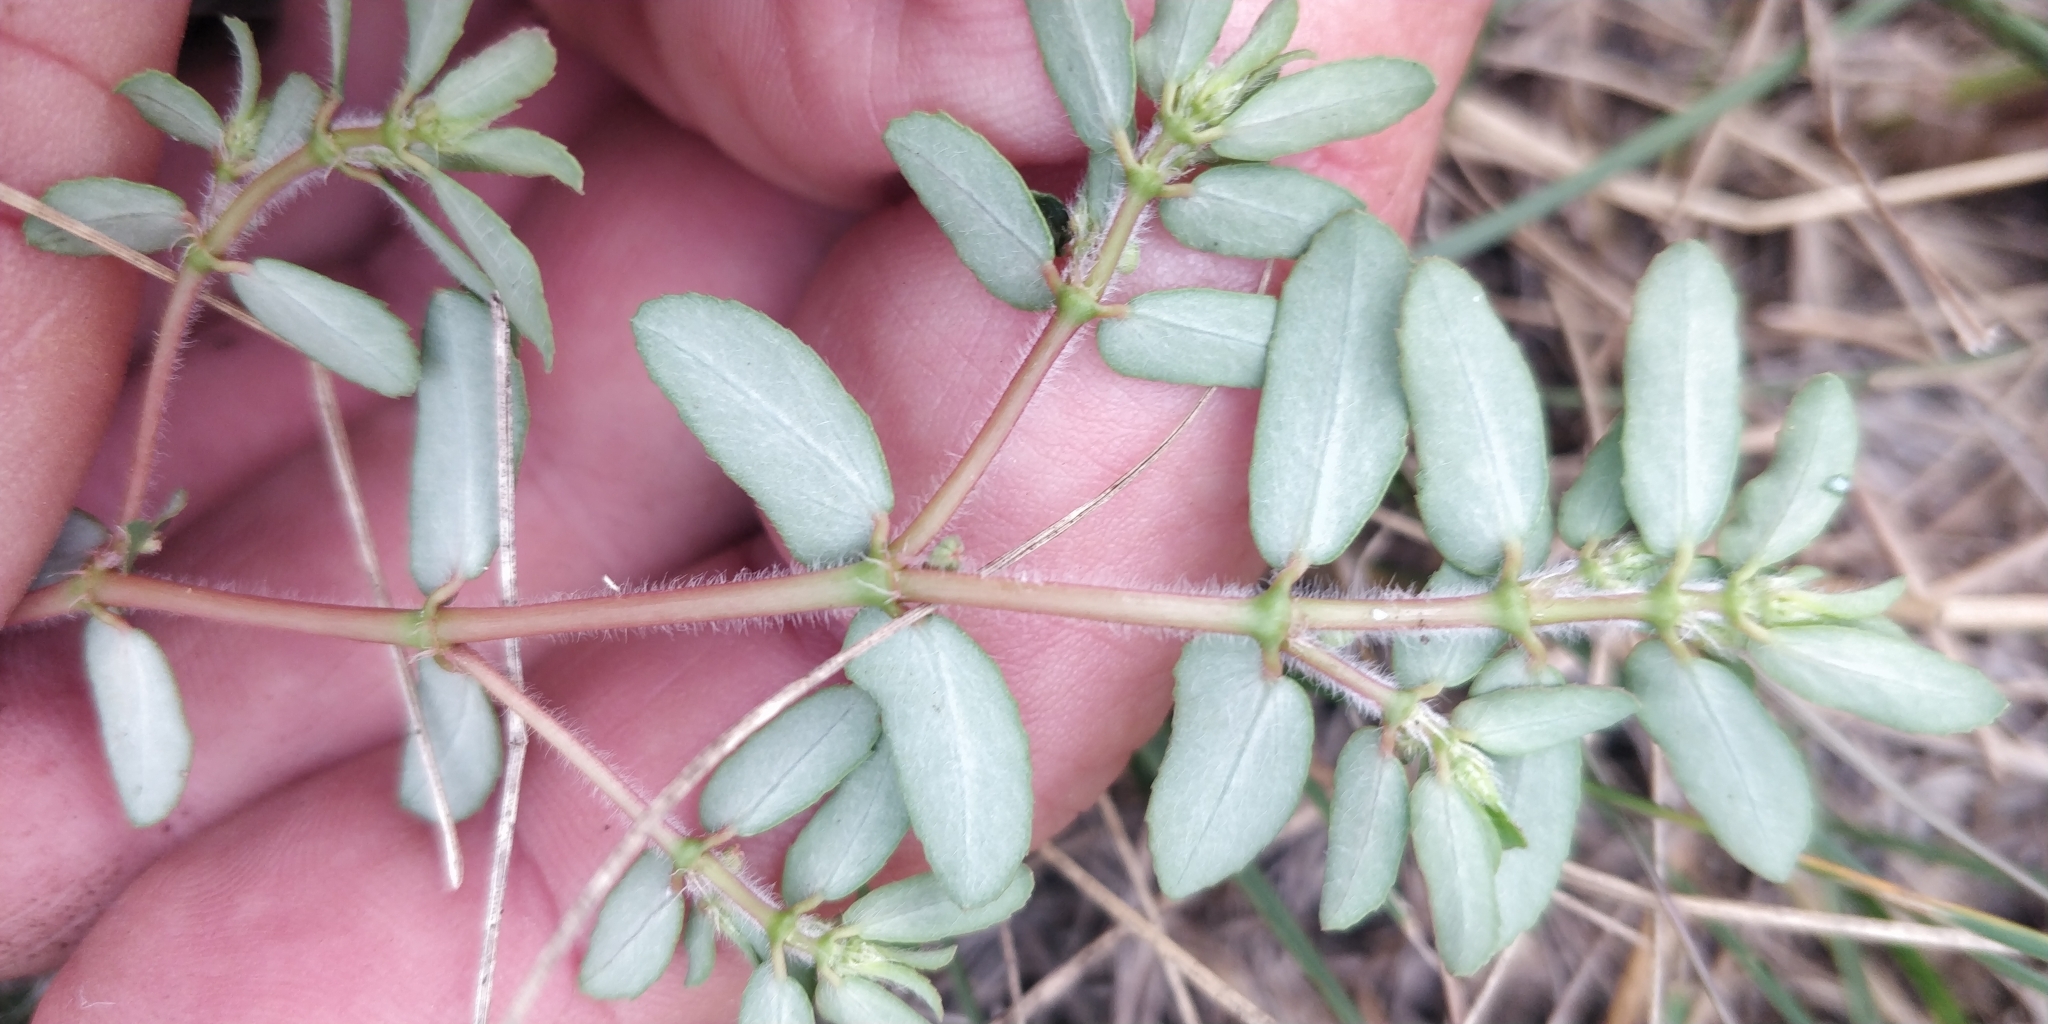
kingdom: Plantae
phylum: Tracheophyta
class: Magnoliopsida
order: Malpighiales
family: Euphorbiaceae
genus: Euphorbia
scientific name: Euphorbia maculata
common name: Spotted spurge
